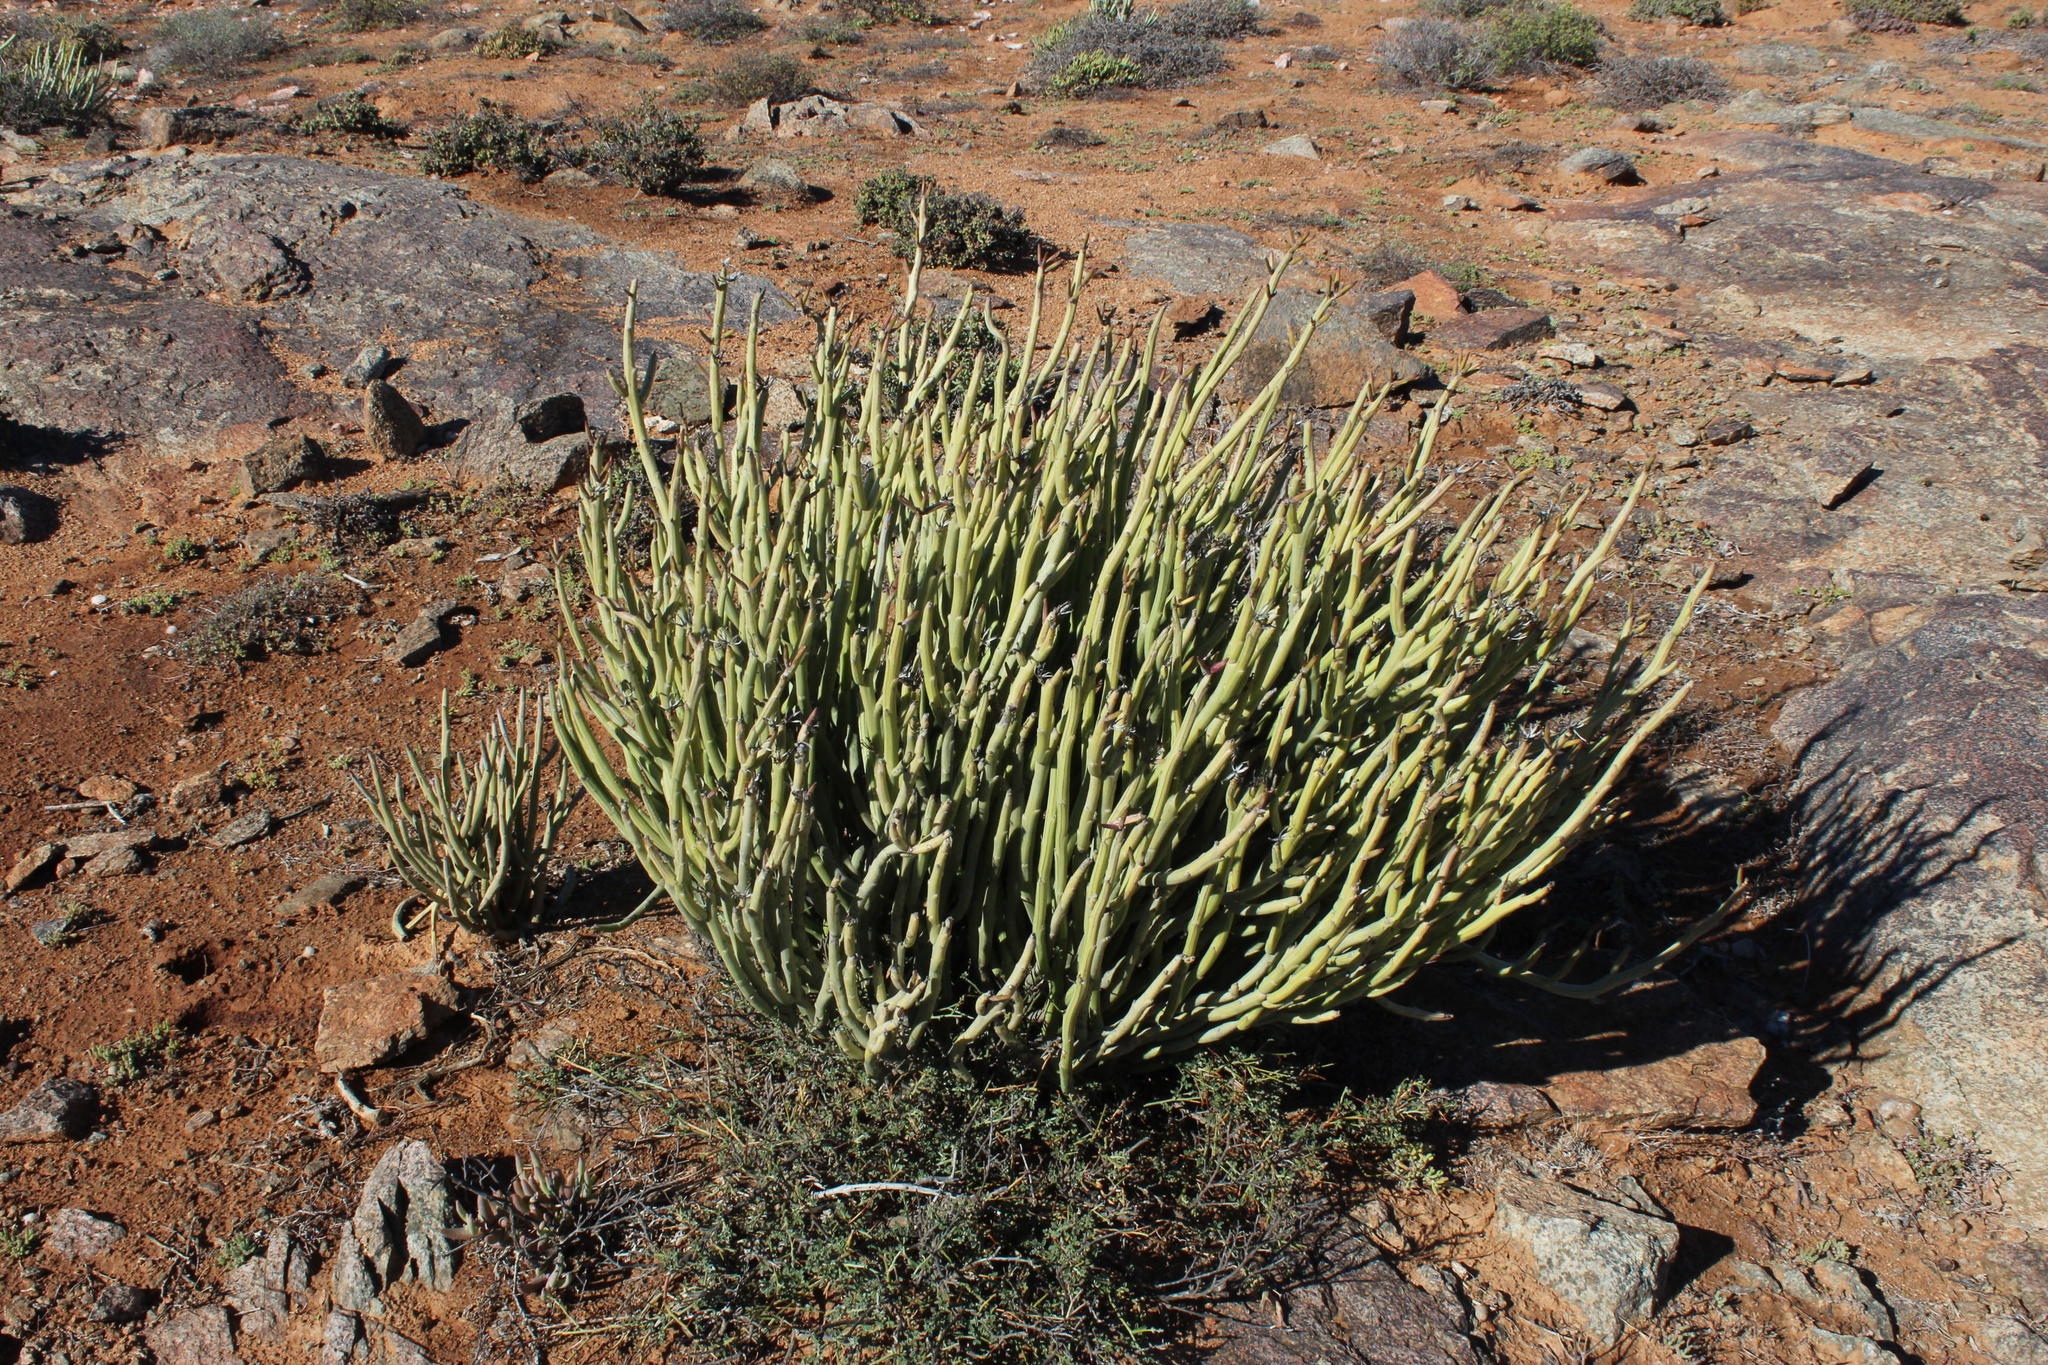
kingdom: Plantae
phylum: Tracheophyta
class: Magnoliopsida
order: Asterales
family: Asteraceae
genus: Curio
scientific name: Curio avasimontanus
